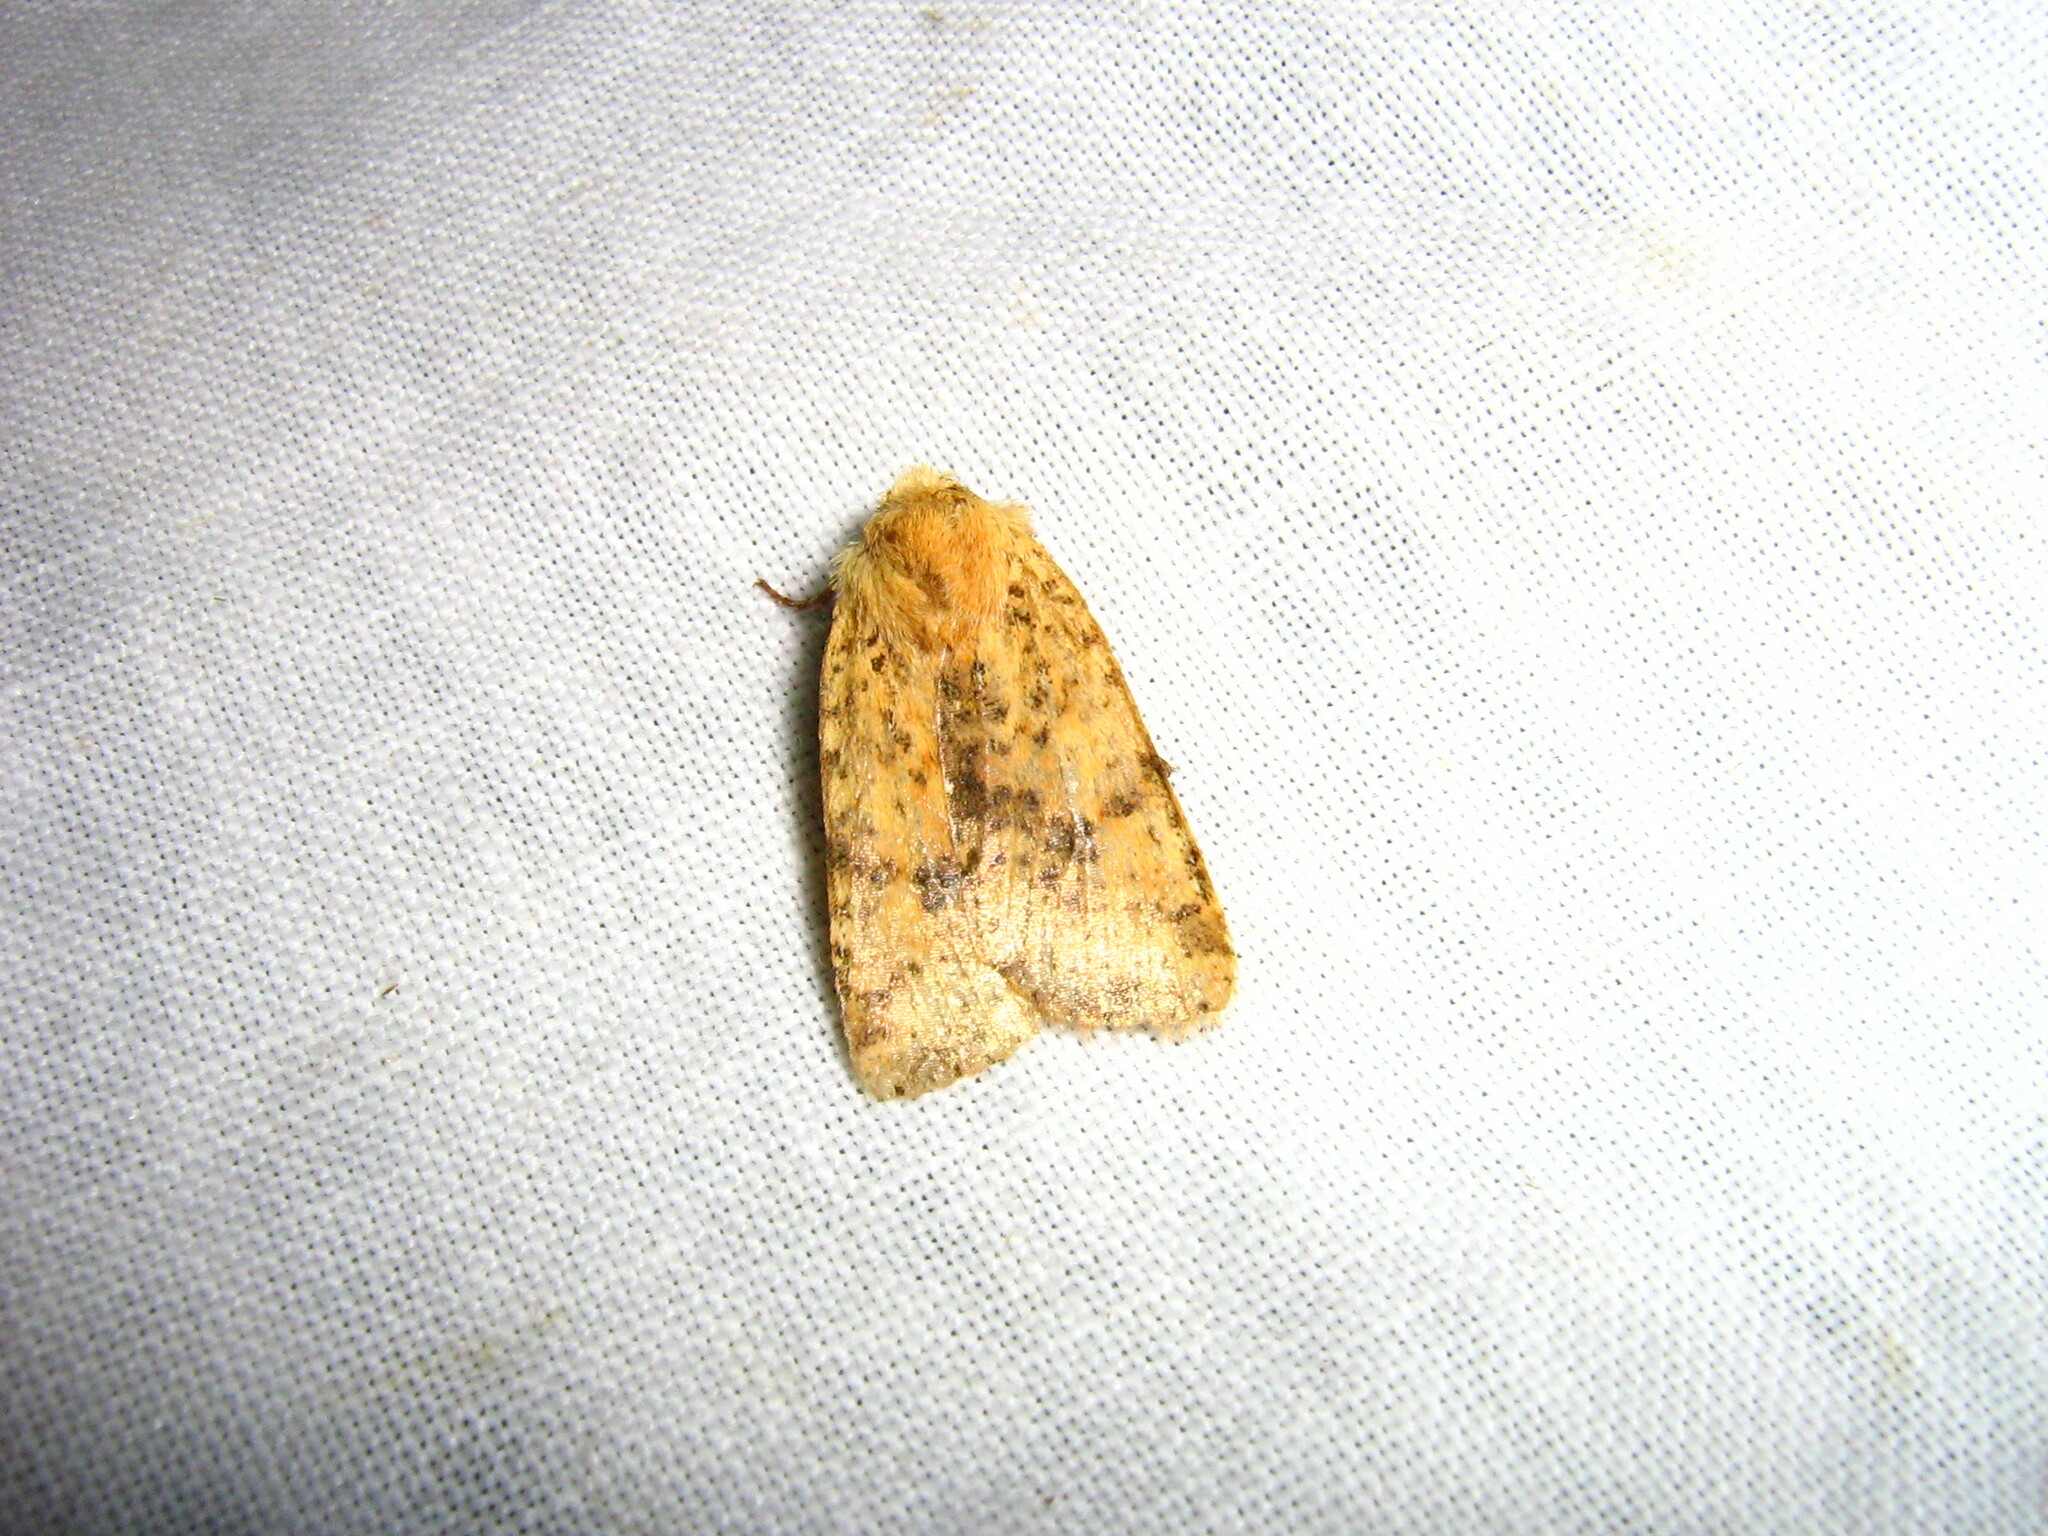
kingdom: Animalia
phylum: Arthropoda
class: Insecta
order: Lepidoptera
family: Noctuidae
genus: Conistra
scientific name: Conistra rubiginea
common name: Dotted chestnut
